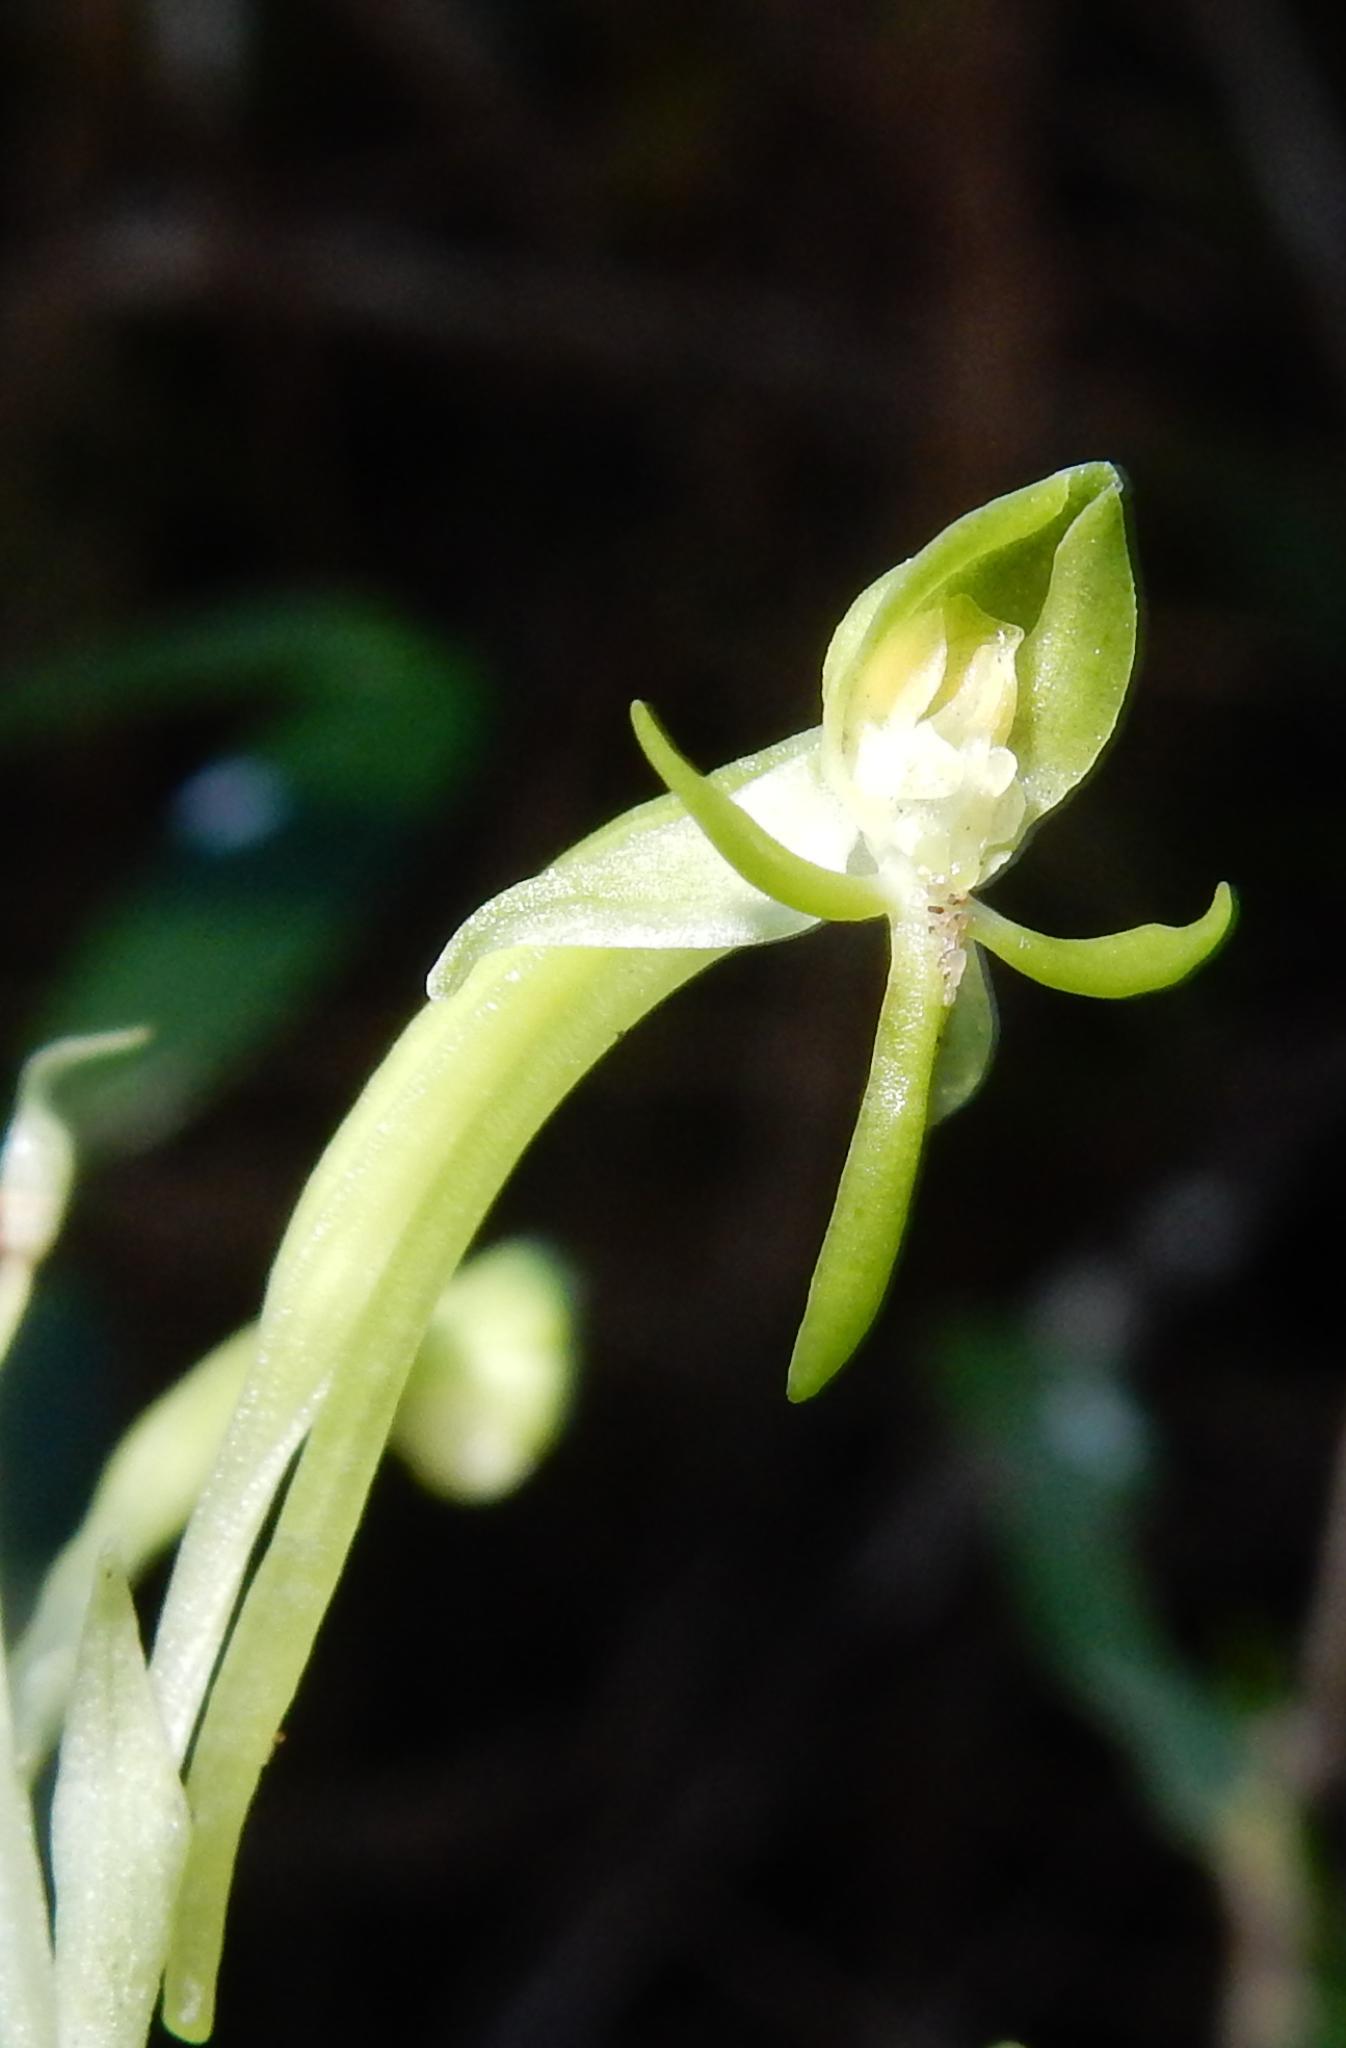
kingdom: Plantae
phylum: Tracheophyta
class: Liliopsida
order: Asparagales
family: Orchidaceae
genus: Habenaria
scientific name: Habenaria arenaria
